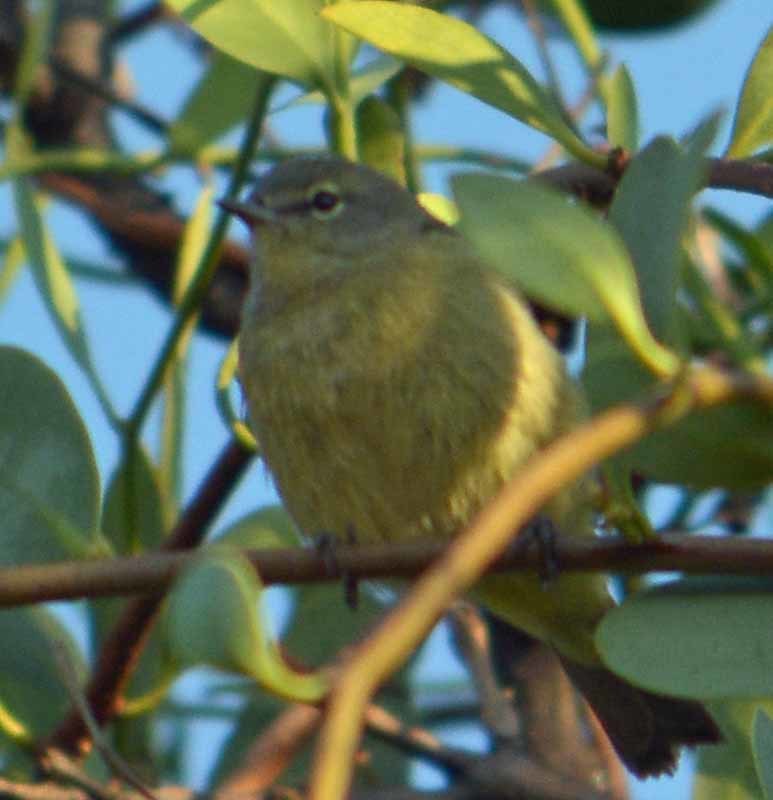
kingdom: Animalia
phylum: Chordata
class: Aves
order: Passeriformes
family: Parulidae
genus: Leiothlypis
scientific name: Leiothlypis celata
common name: Orange-crowned warbler
